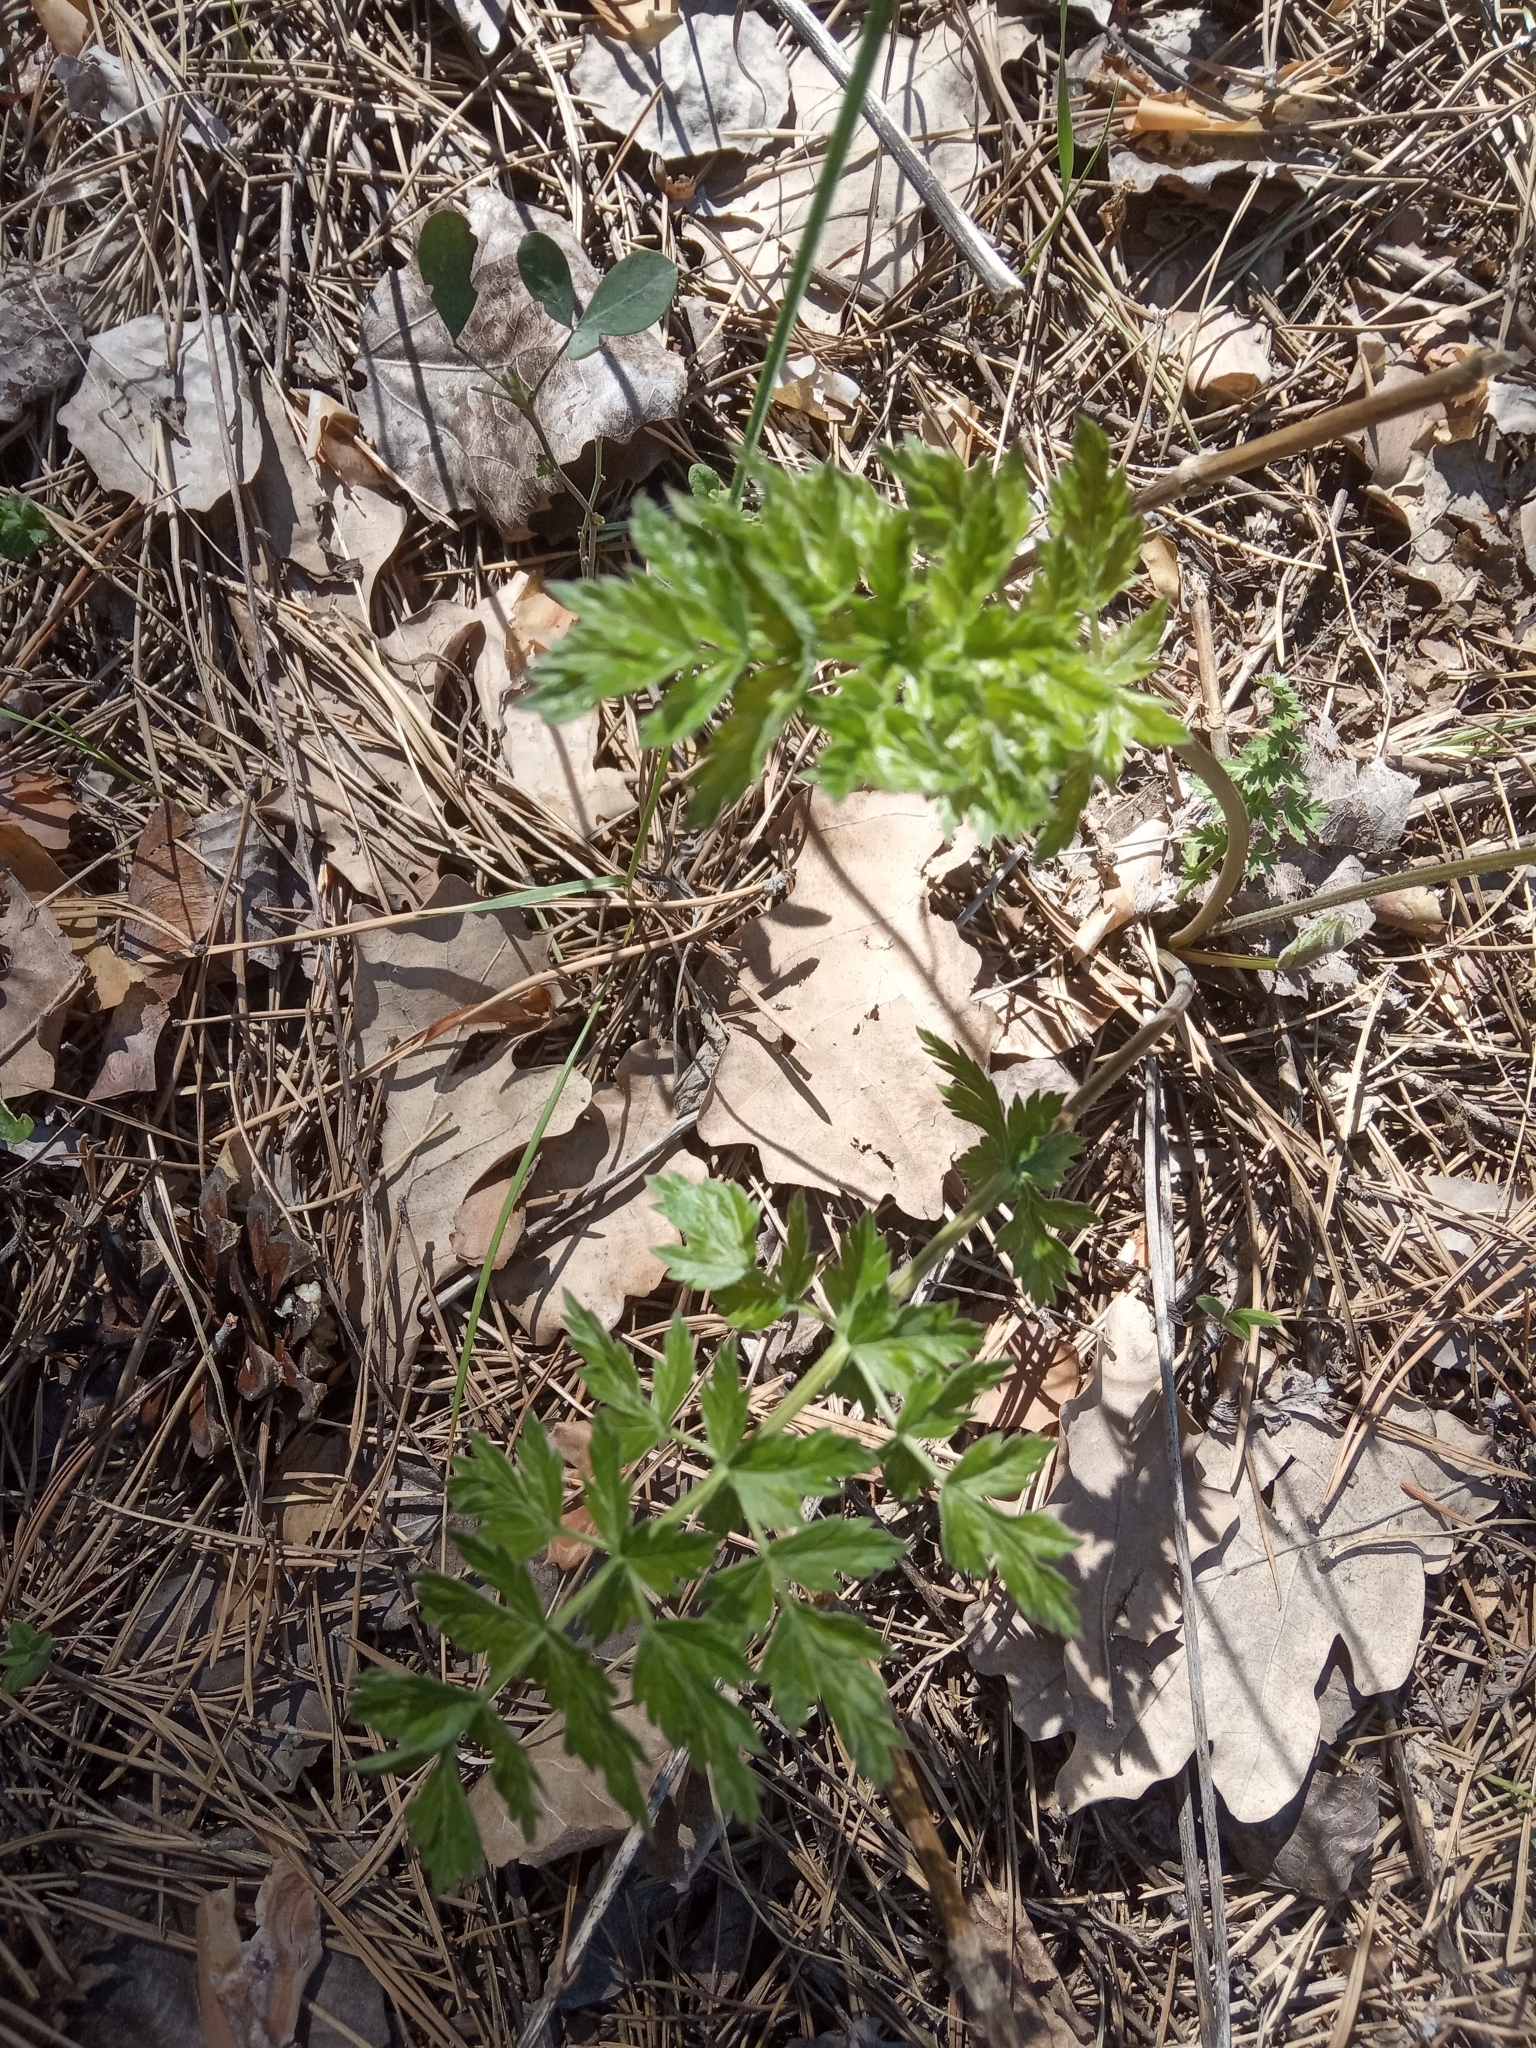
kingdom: Plantae
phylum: Tracheophyta
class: Magnoliopsida
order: Apiales
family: Apiaceae
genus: Seseli
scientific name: Seseli libanotis
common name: Mooncarrot
